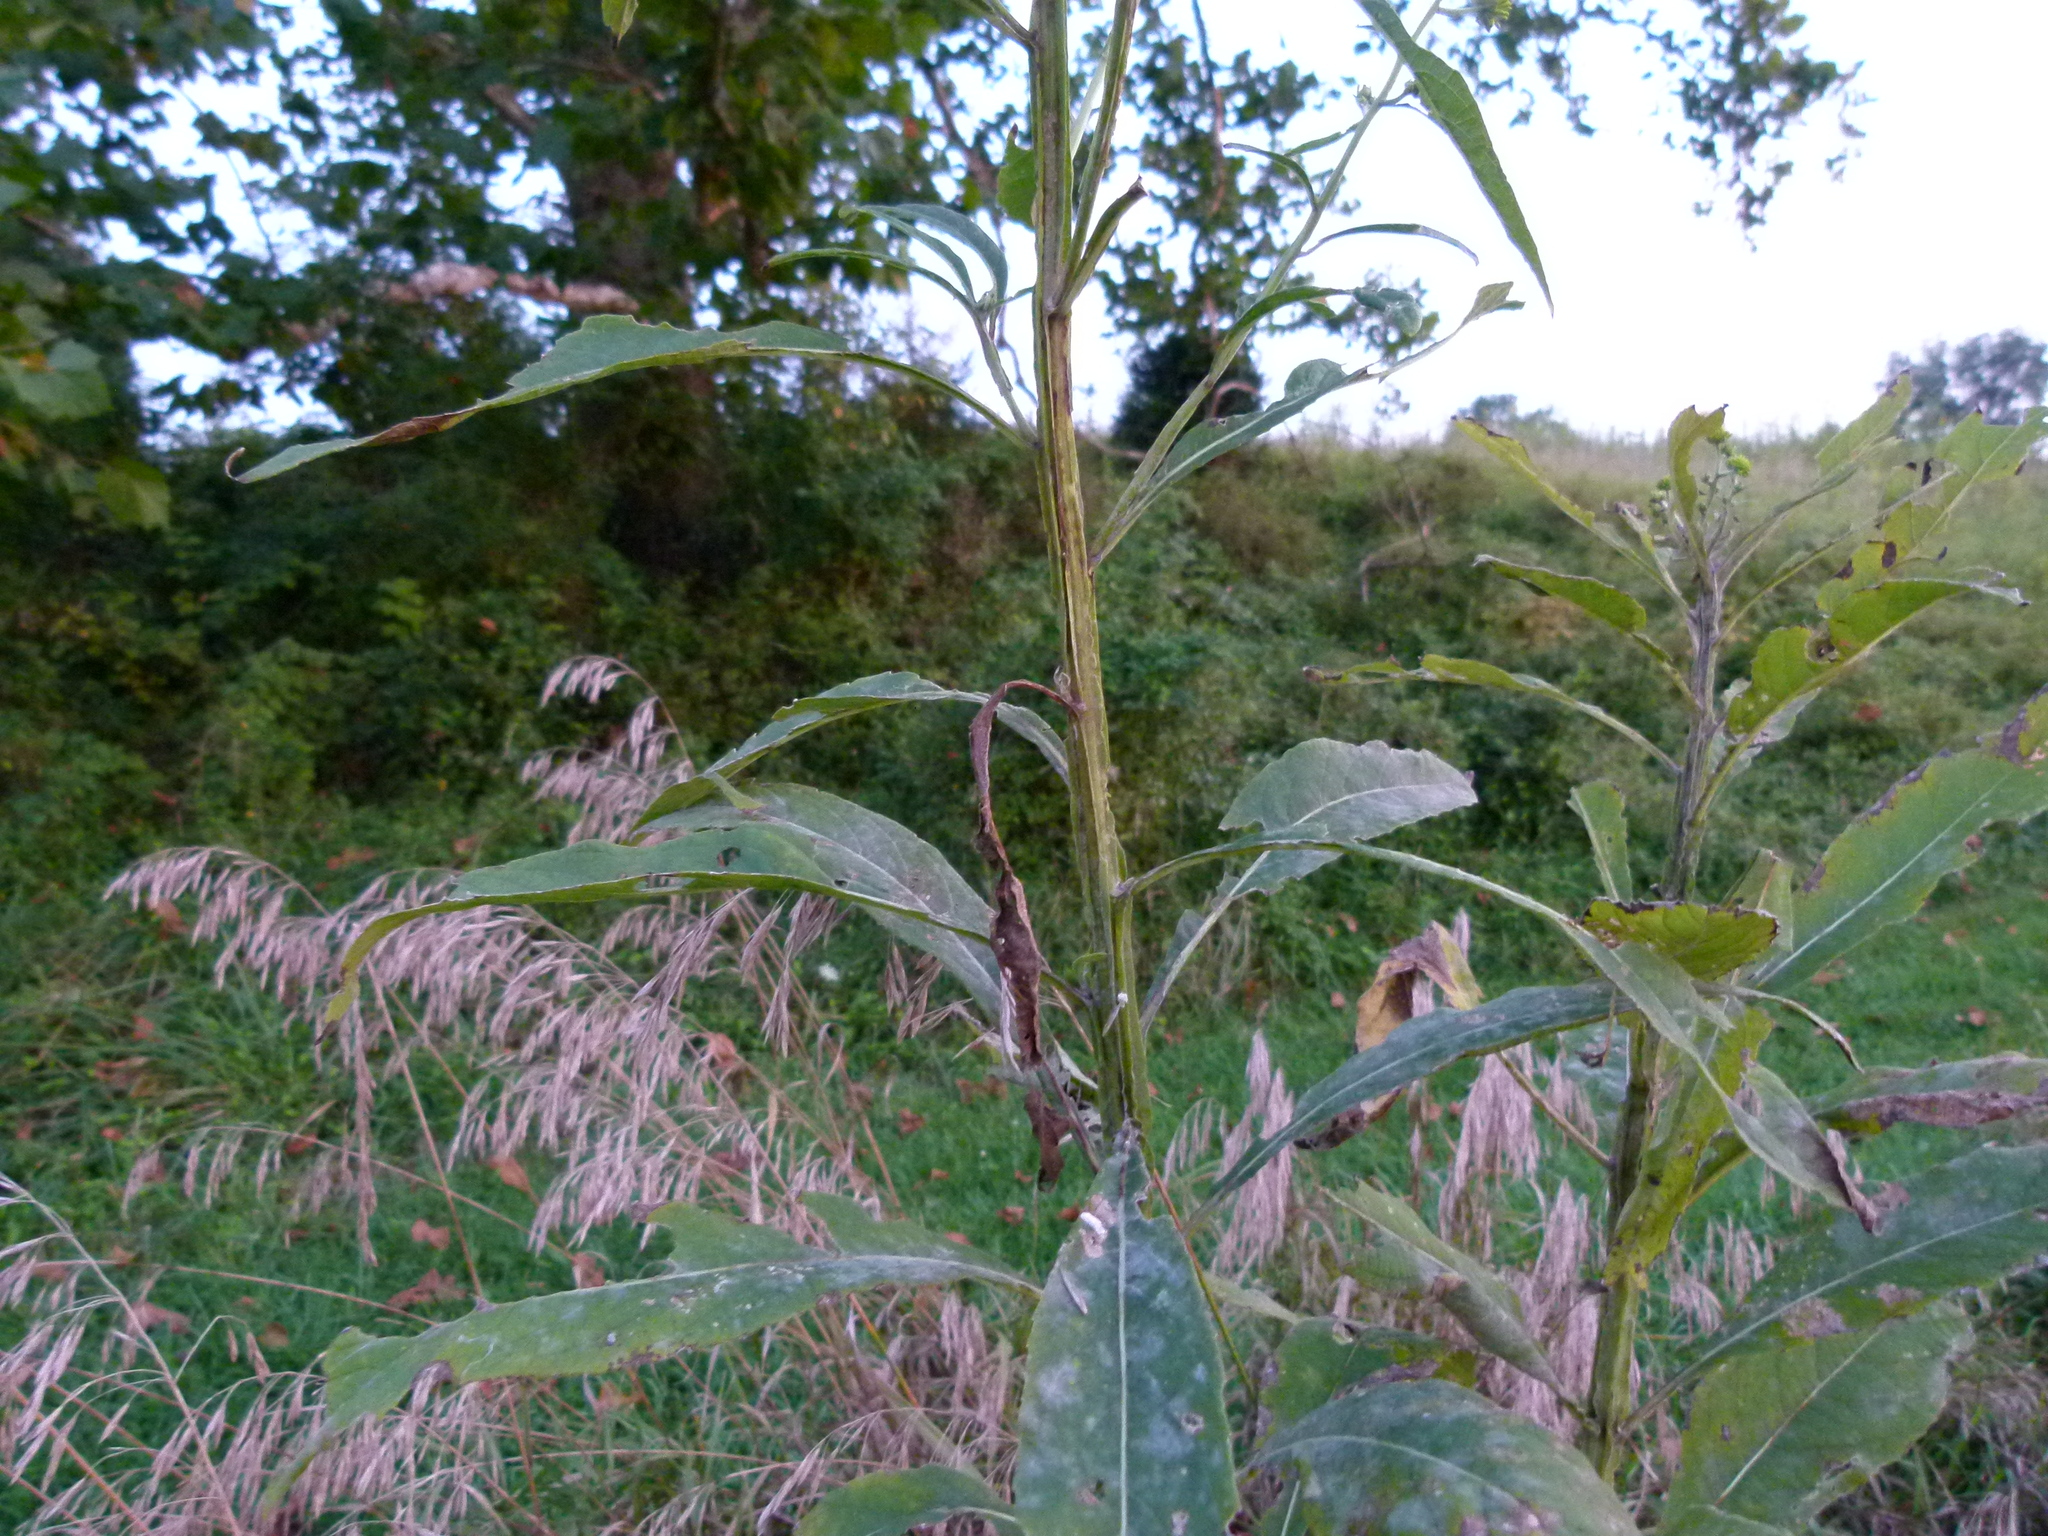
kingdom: Plantae
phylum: Tracheophyta
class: Magnoliopsida
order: Asterales
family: Asteraceae
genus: Verbesina
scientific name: Verbesina alternifolia
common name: Wingstem
